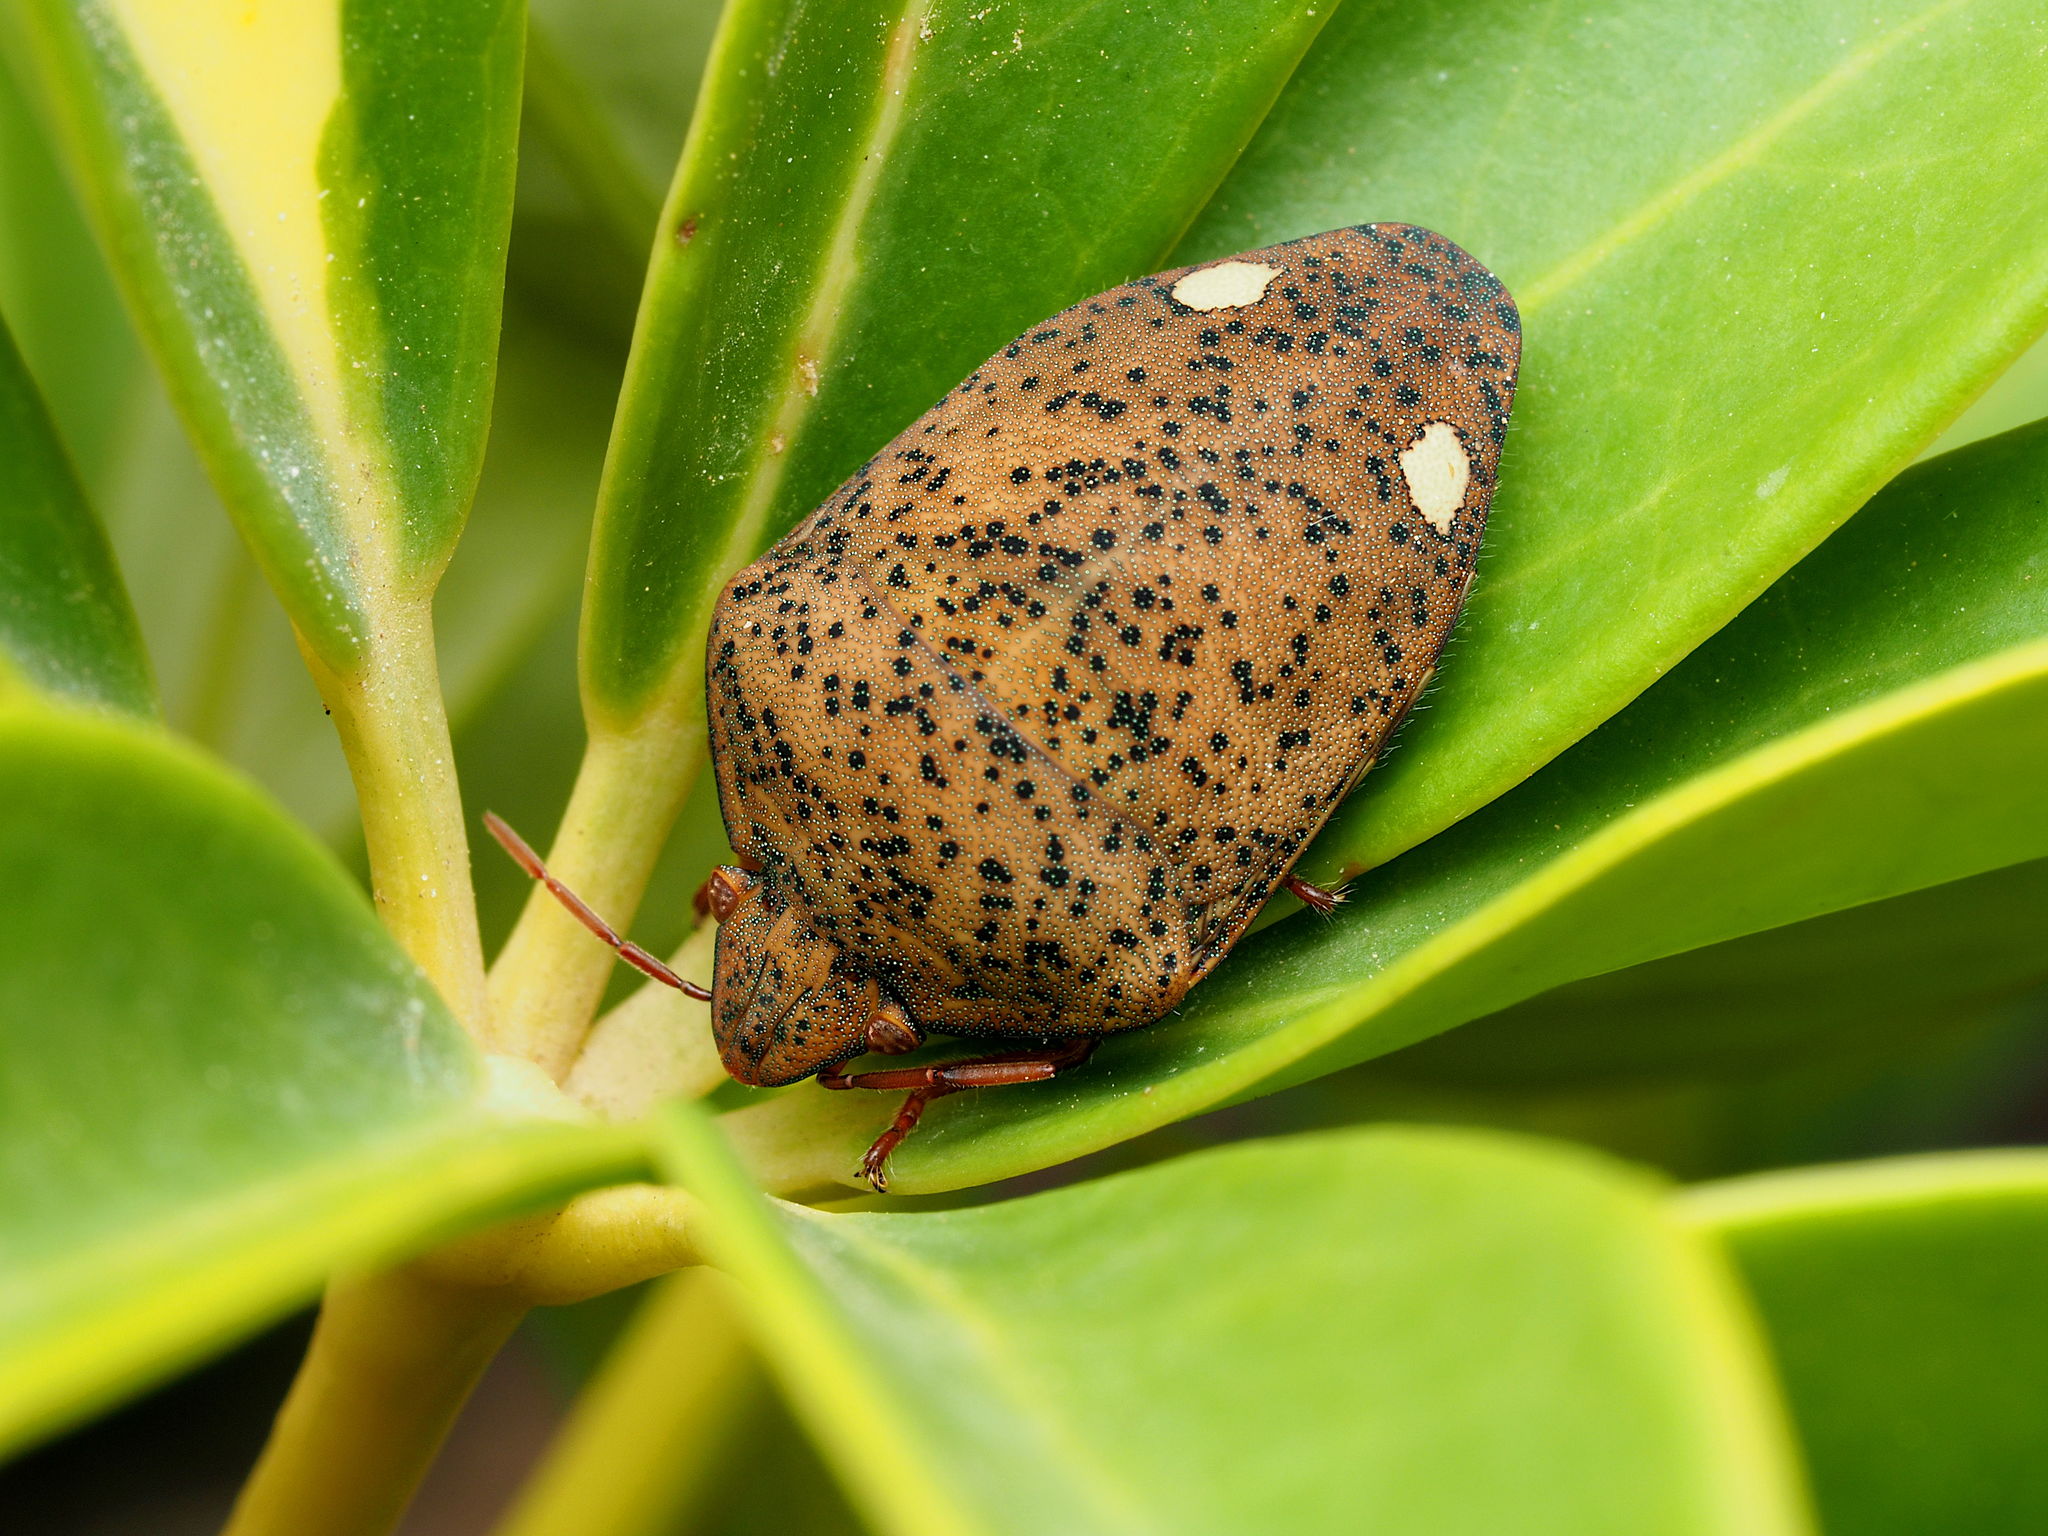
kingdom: Animalia
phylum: Arthropoda
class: Insecta
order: Hemiptera
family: Scutelleridae
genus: Solenosthedium
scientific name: Solenosthedium bilunatum
